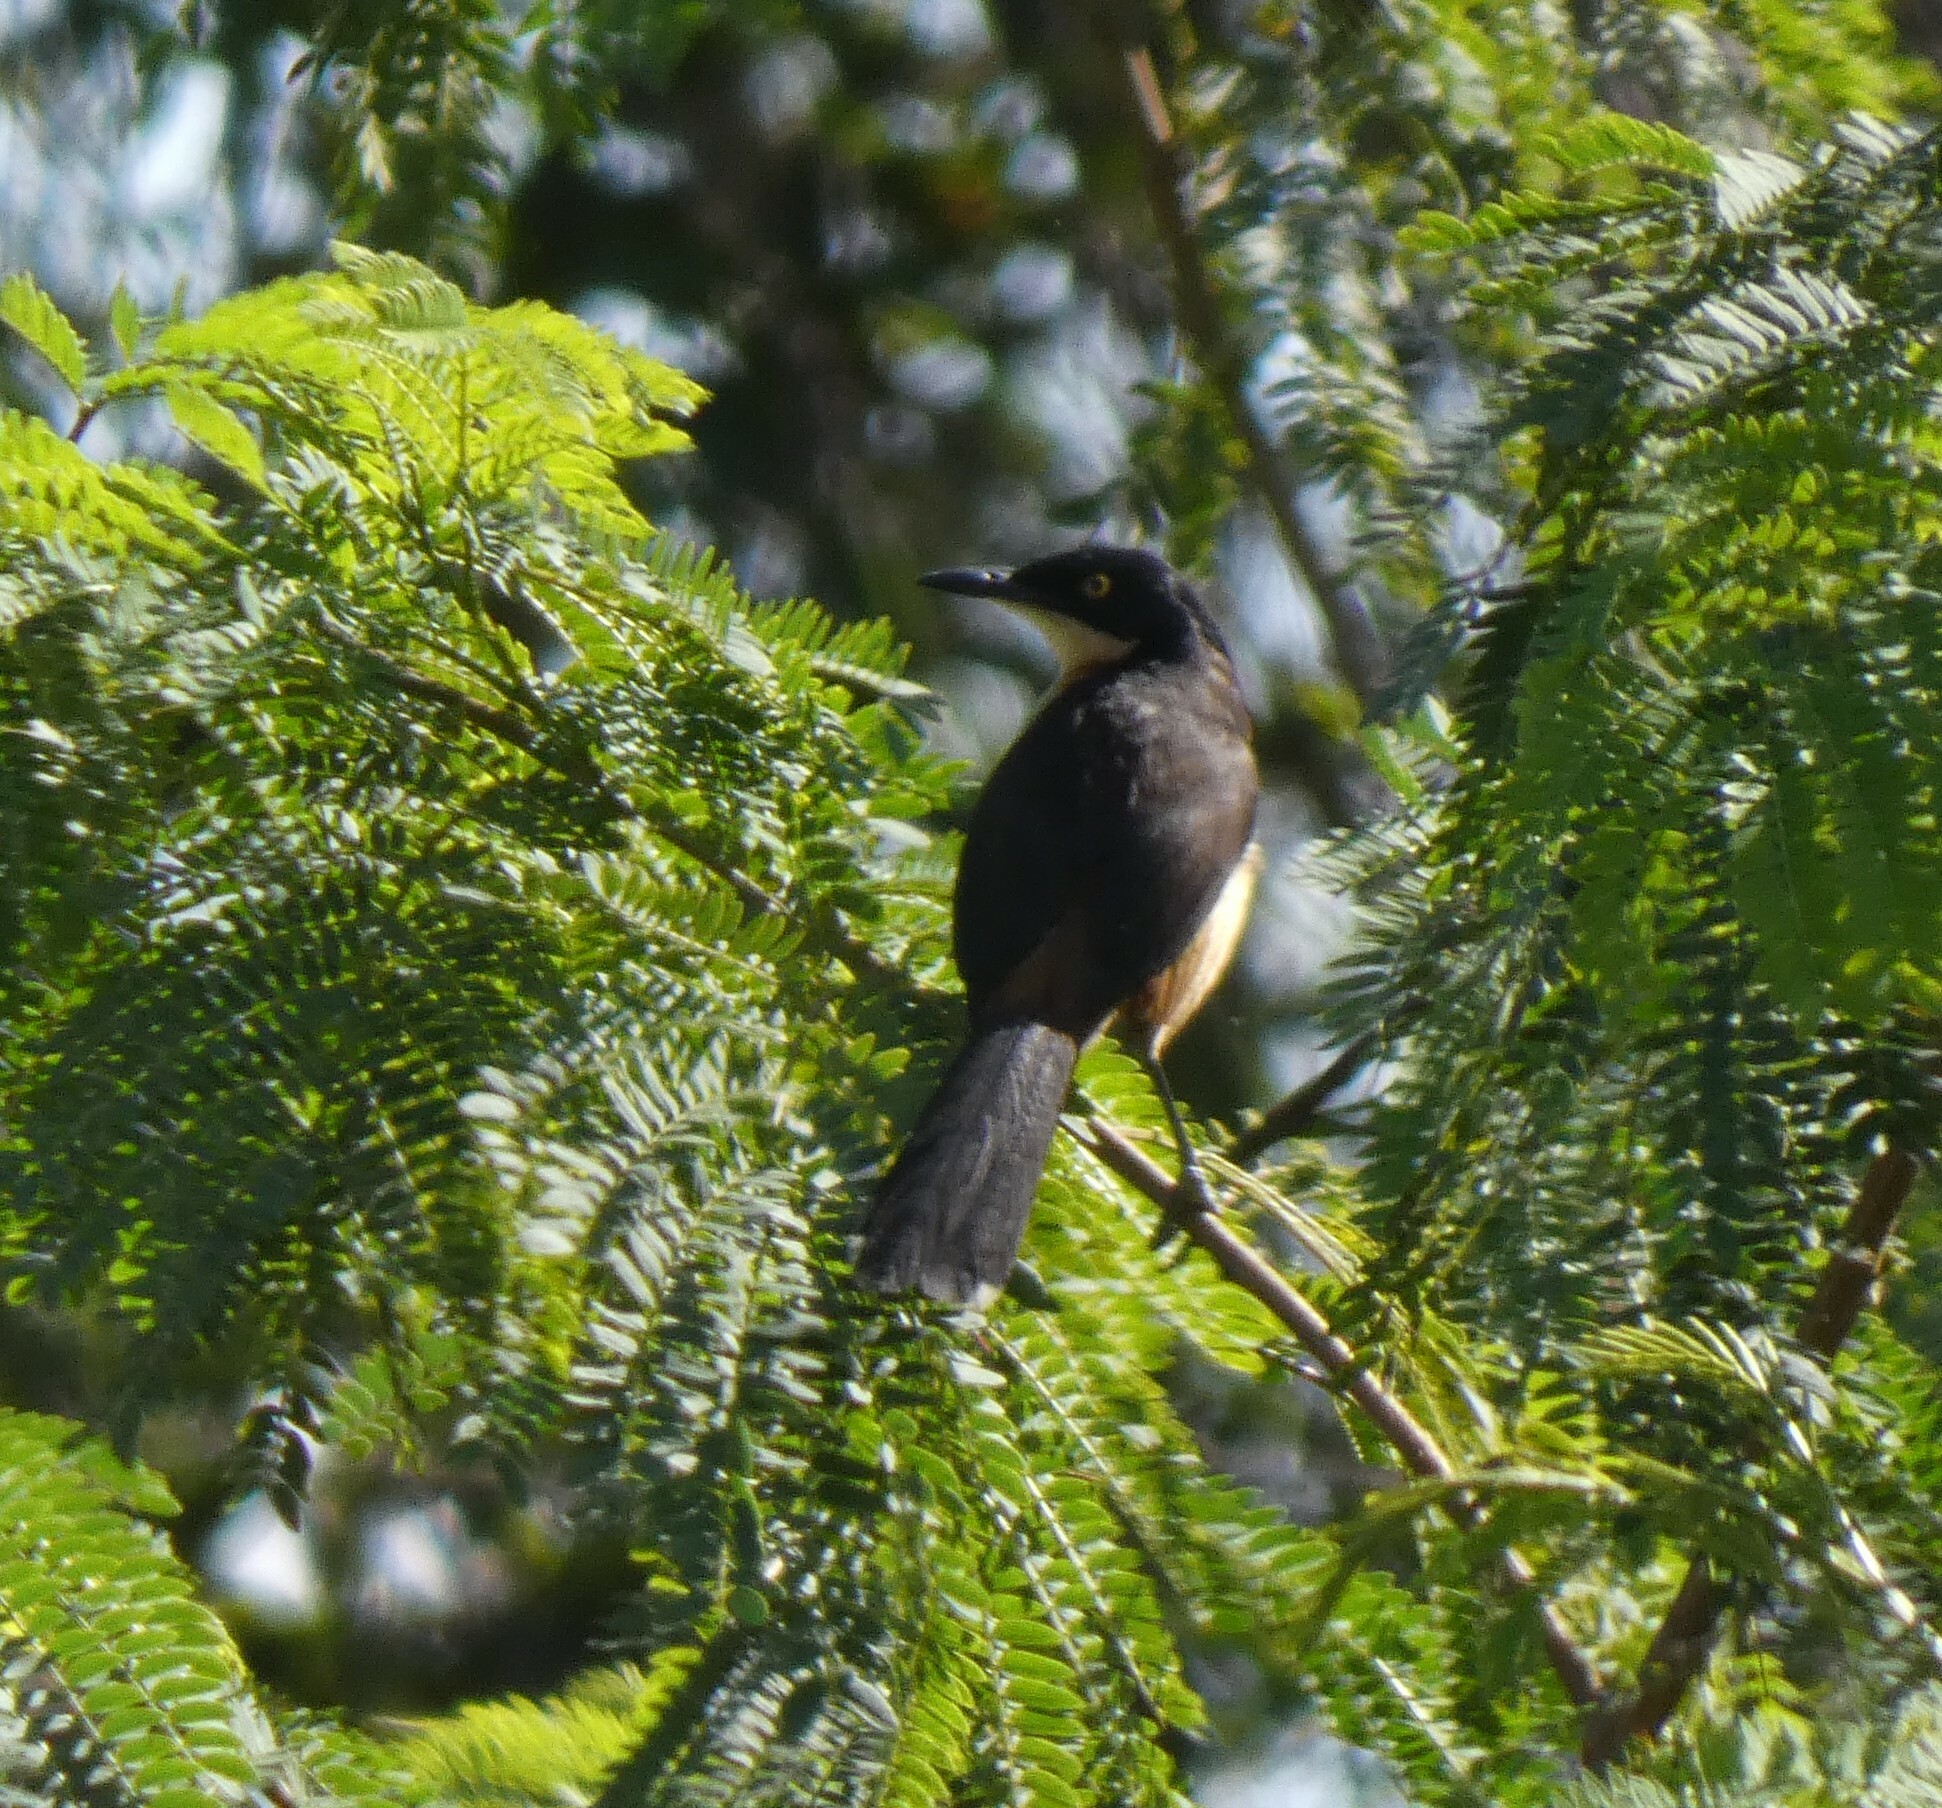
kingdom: Animalia
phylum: Chordata
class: Aves
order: Passeriformes
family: Donacobiidae
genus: Donacobius
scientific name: Donacobius atricapilla
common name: Black-capped donacobius
